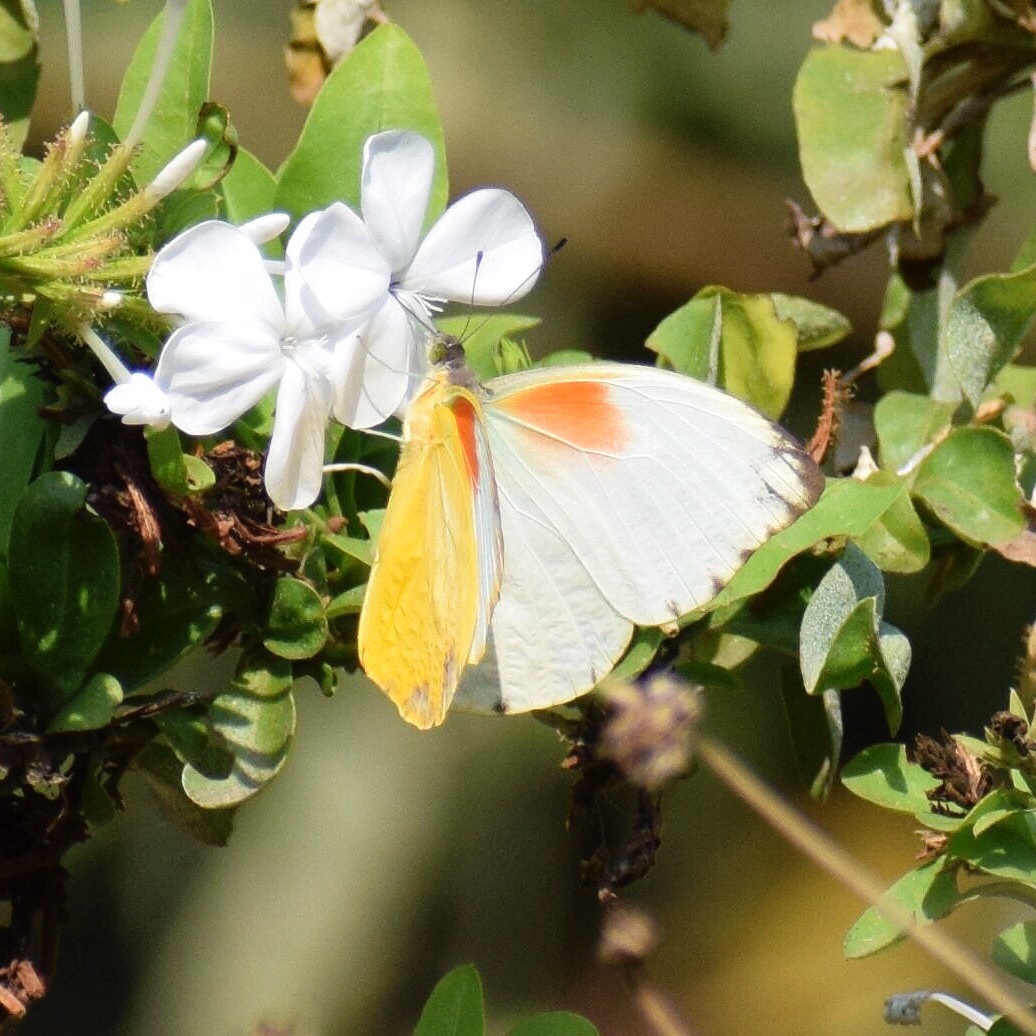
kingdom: Animalia
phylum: Arthropoda
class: Insecta
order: Lepidoptera
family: Pieridae
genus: Nepheronia
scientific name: Nepheronia argia
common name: Large vagrant
